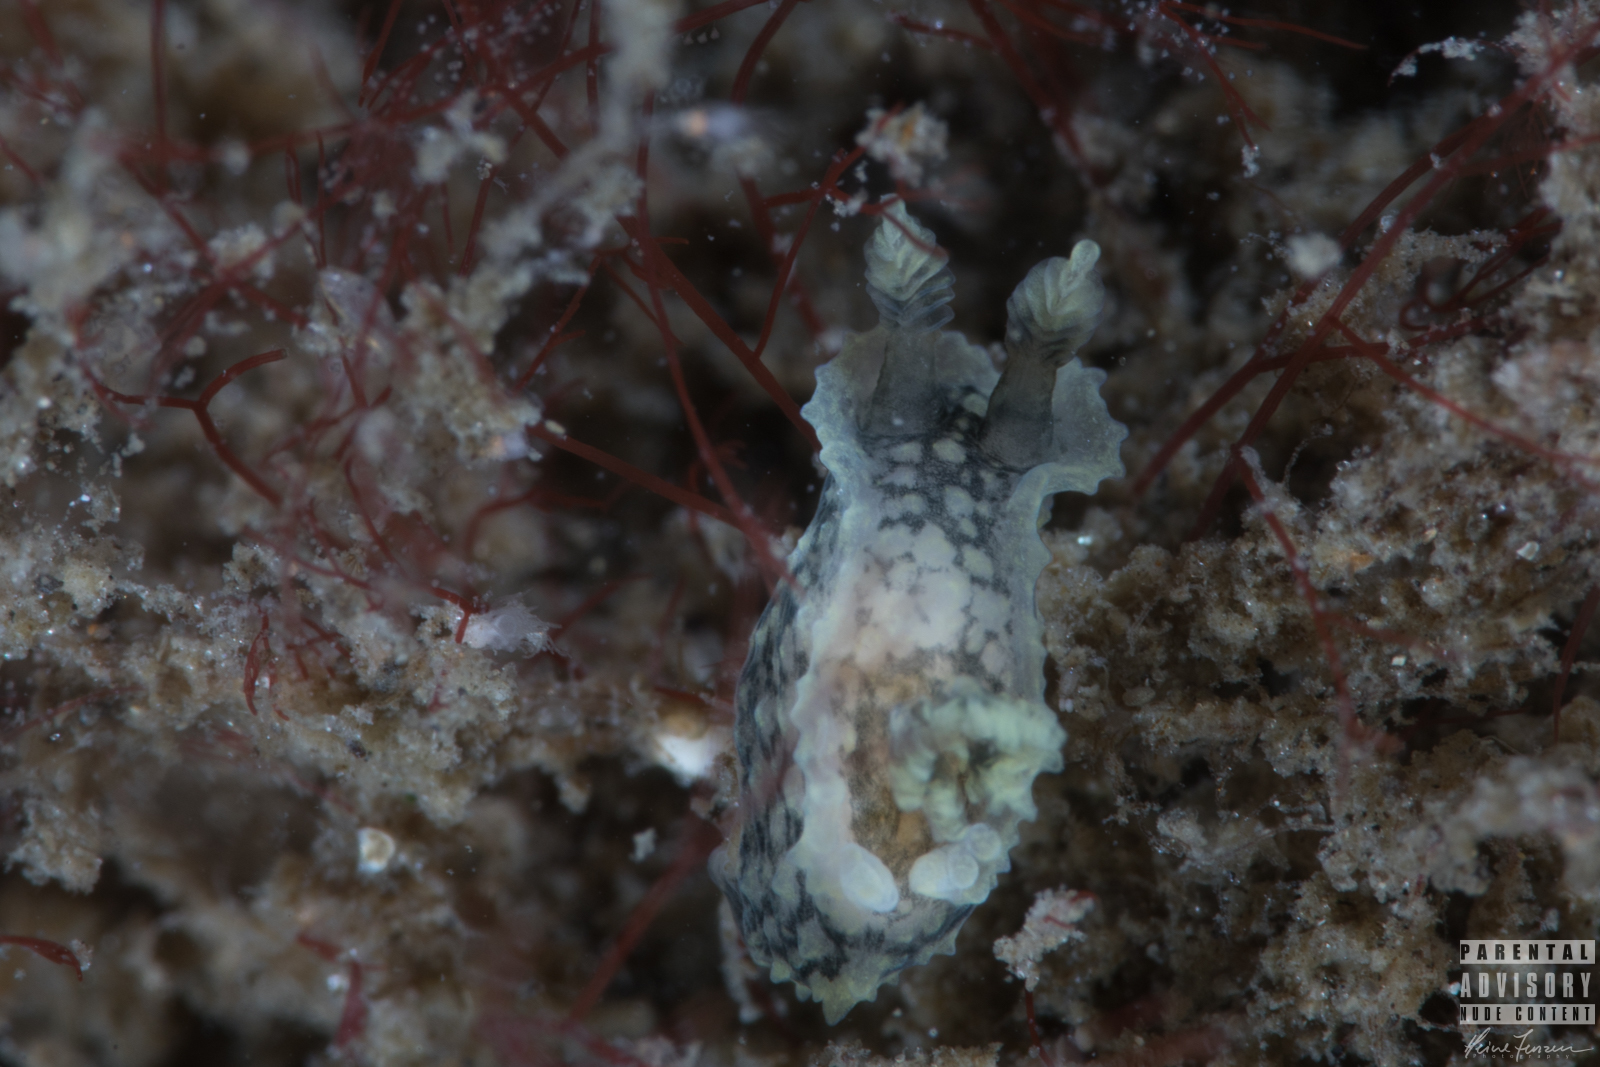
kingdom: Animalia
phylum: Mollusca
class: Gastropoda
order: Nudibranchia
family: Polyceridae
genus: Palio
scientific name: Palio nothus
